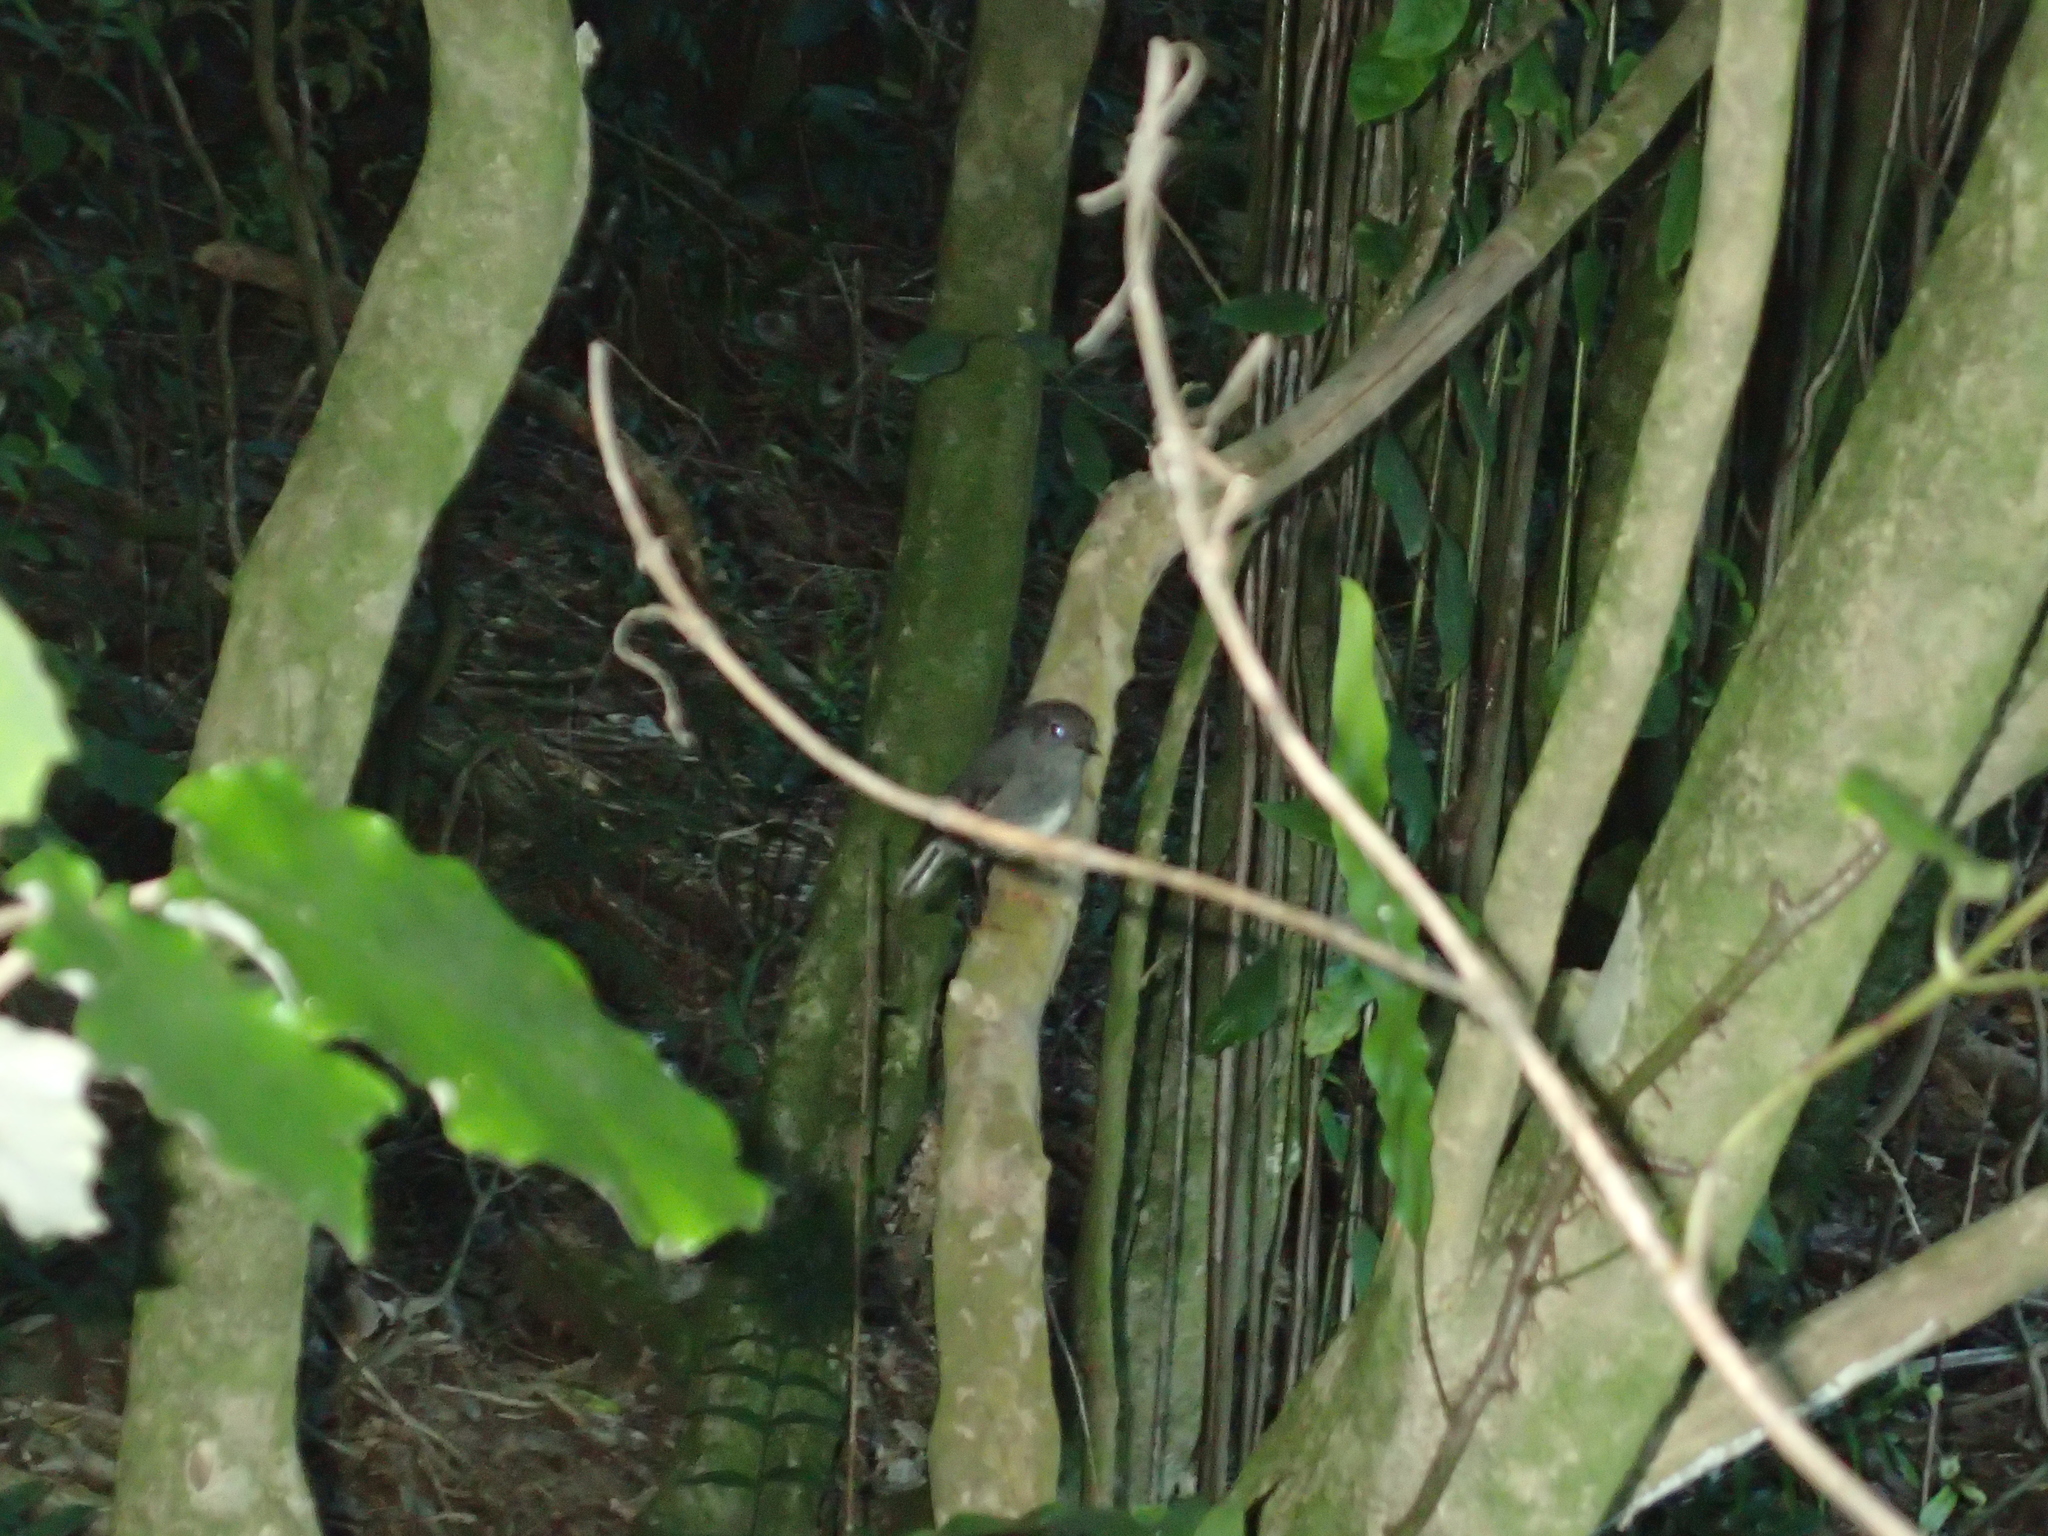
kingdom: Animalia
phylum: Chordata
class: Aves
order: Passeriformes
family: Petroicidae
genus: Petroica
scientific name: Petroica australis
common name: New zealand robin
